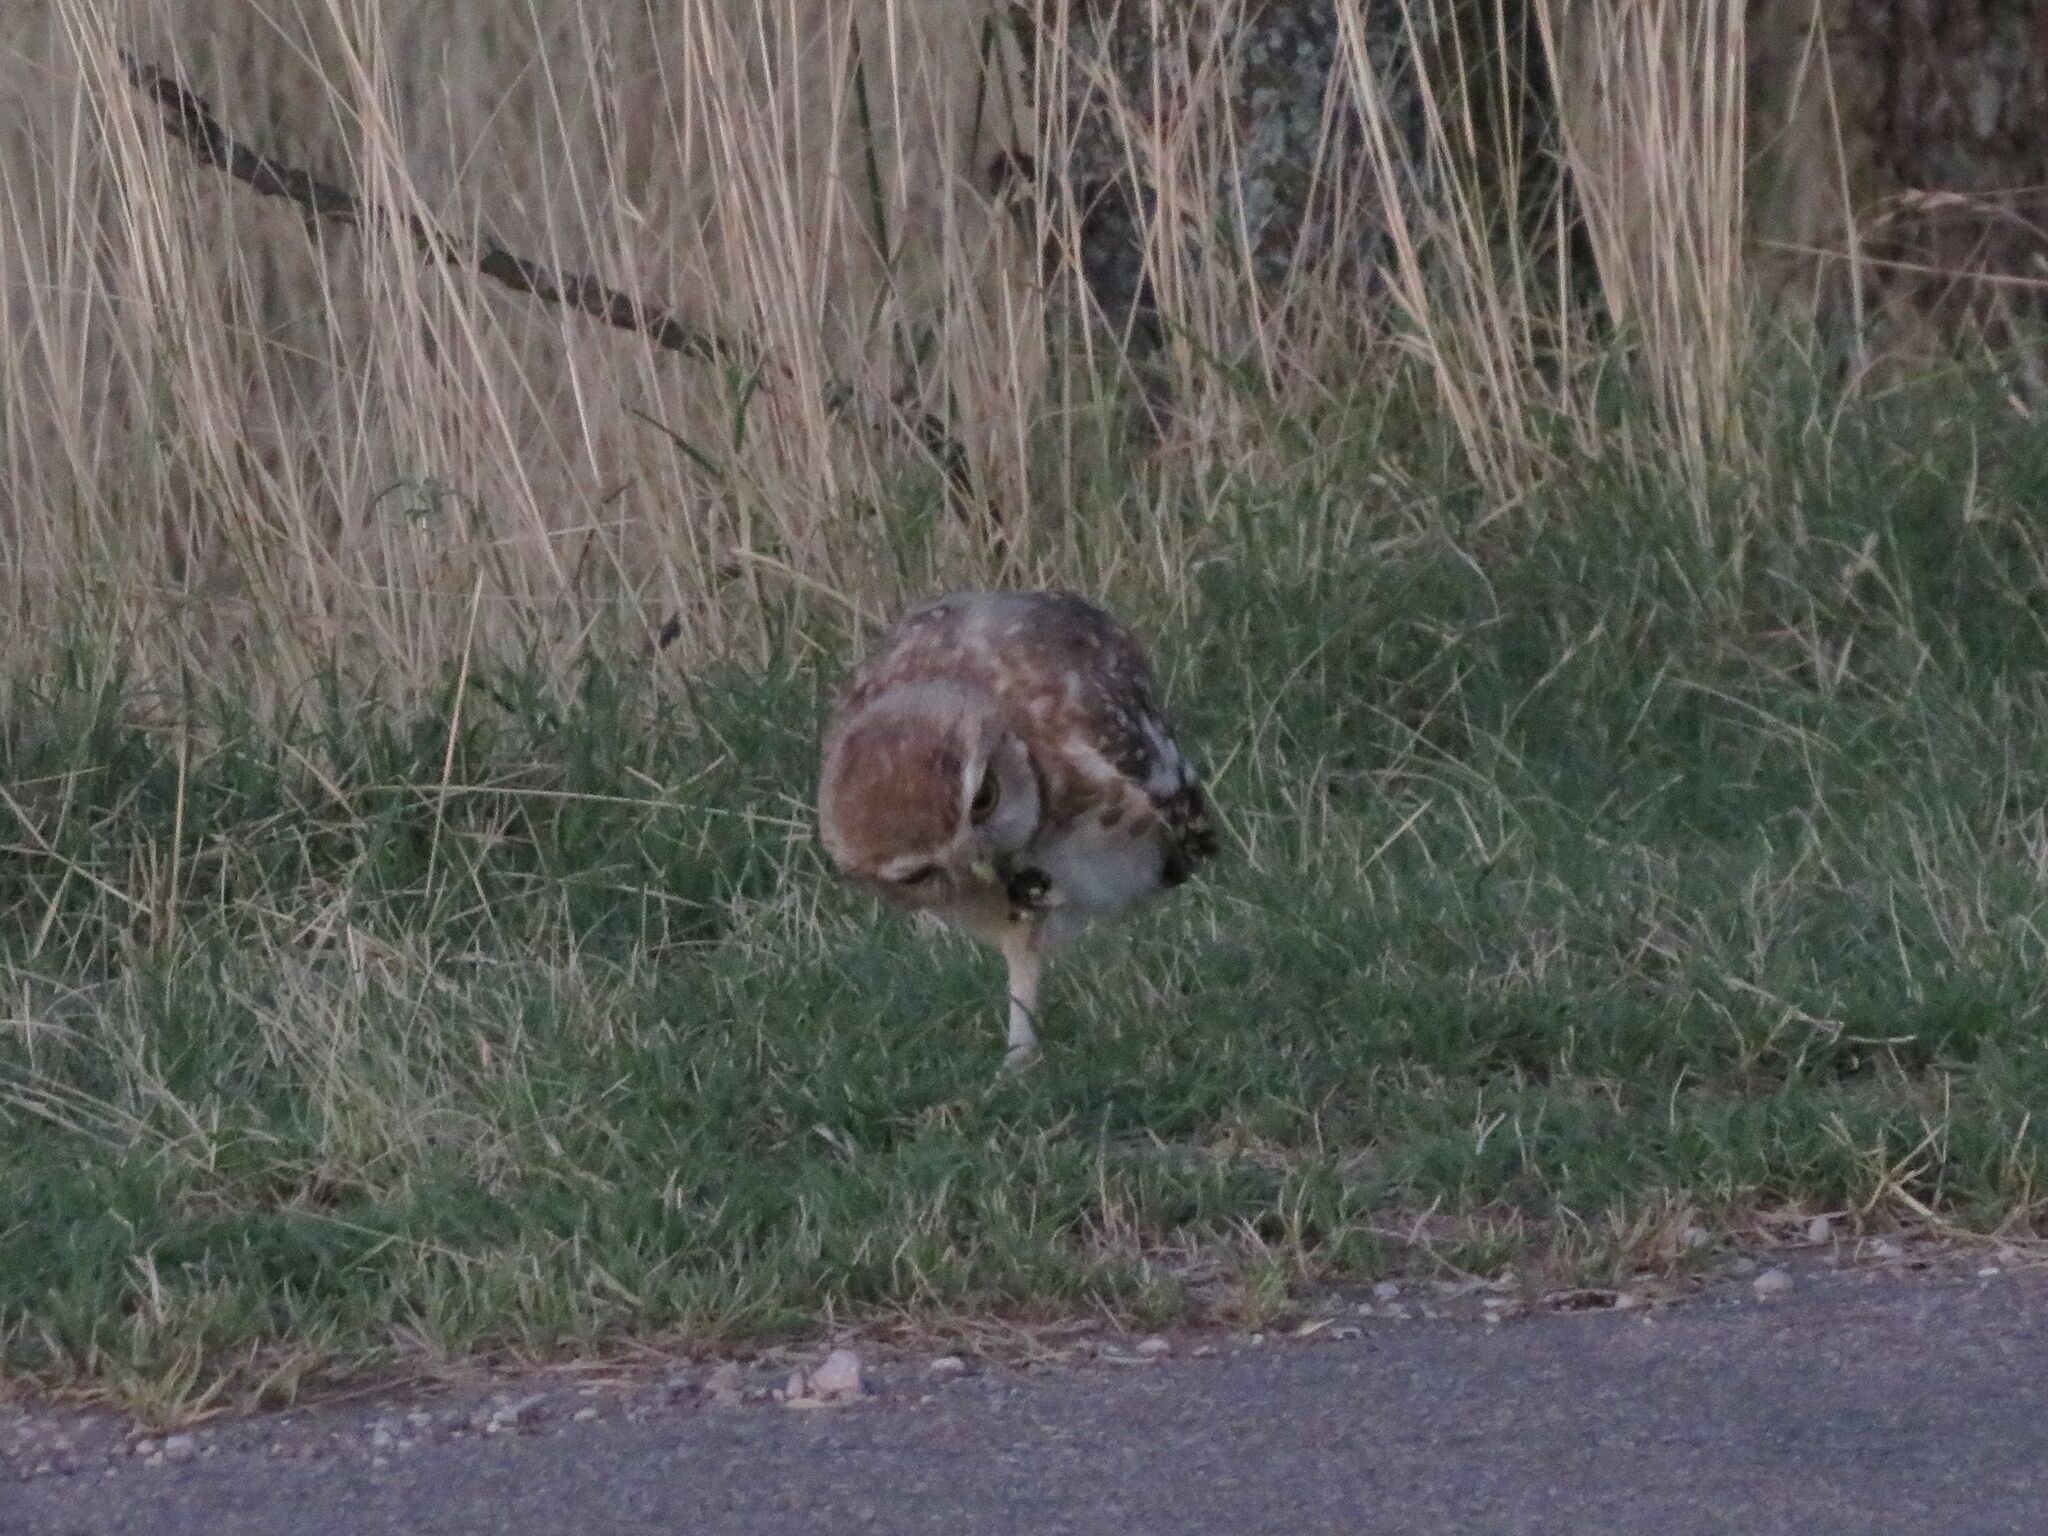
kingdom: Animalia
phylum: Chordata
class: Aves
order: Strigiformes
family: Strigidae
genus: Athene
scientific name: Athene cunicularia
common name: Burrowing owl
